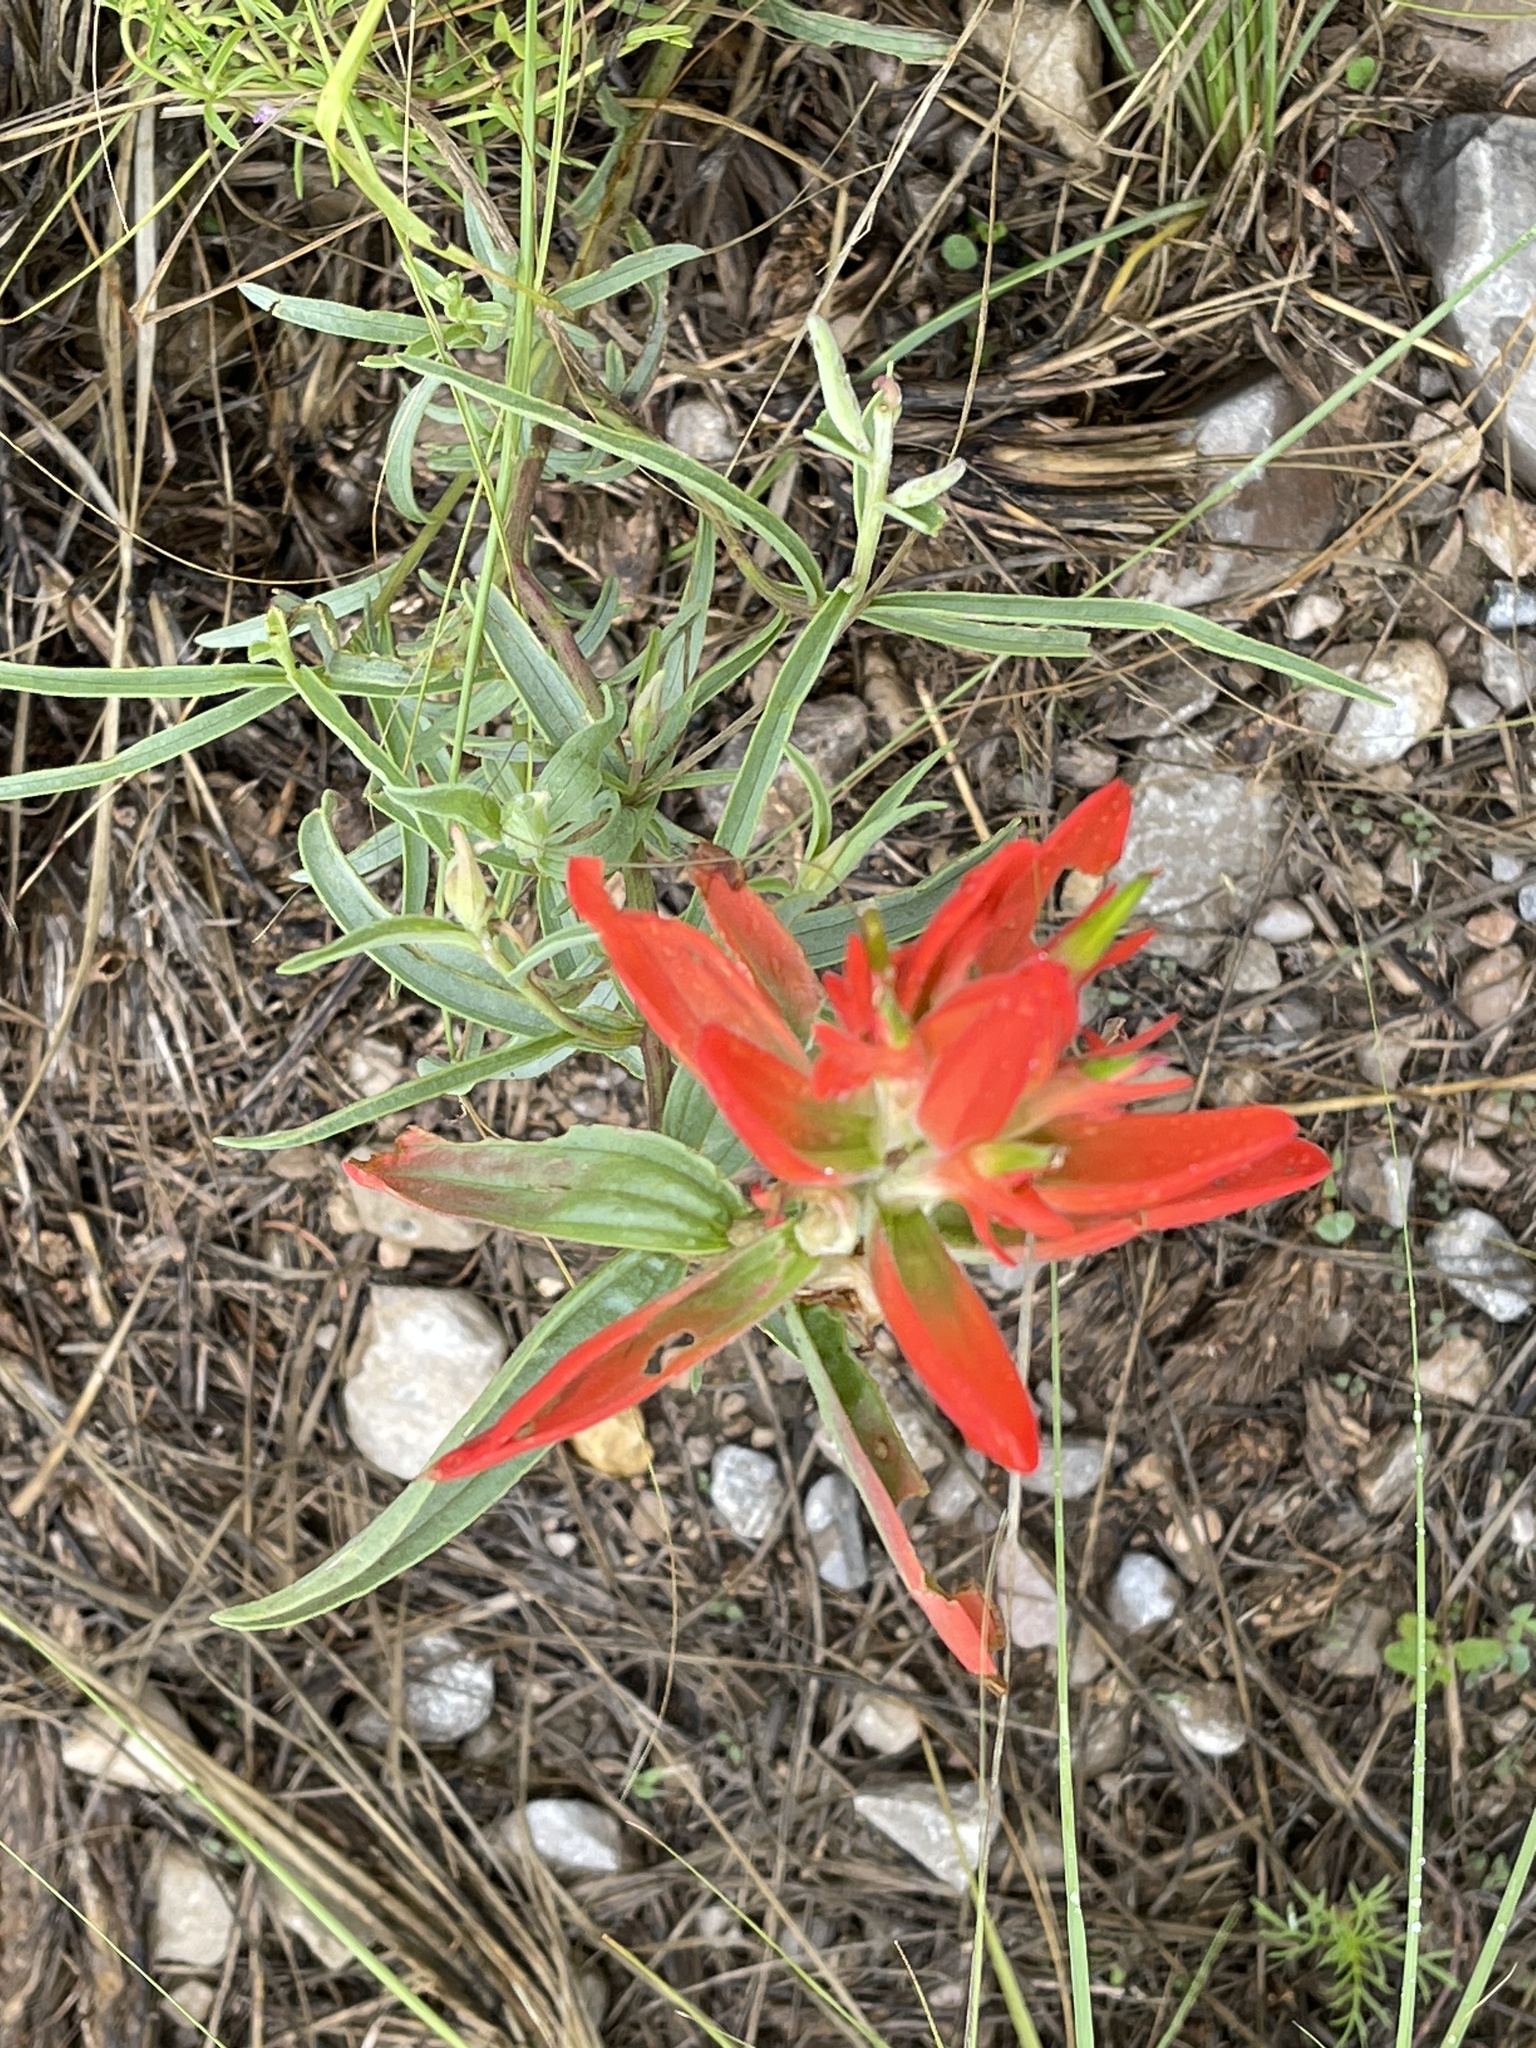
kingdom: Plantae
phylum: Tracheophyta
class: Magnoliopsida
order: Lamiales
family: Orobanchaceae
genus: Castilleja
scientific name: Castilleja integra
